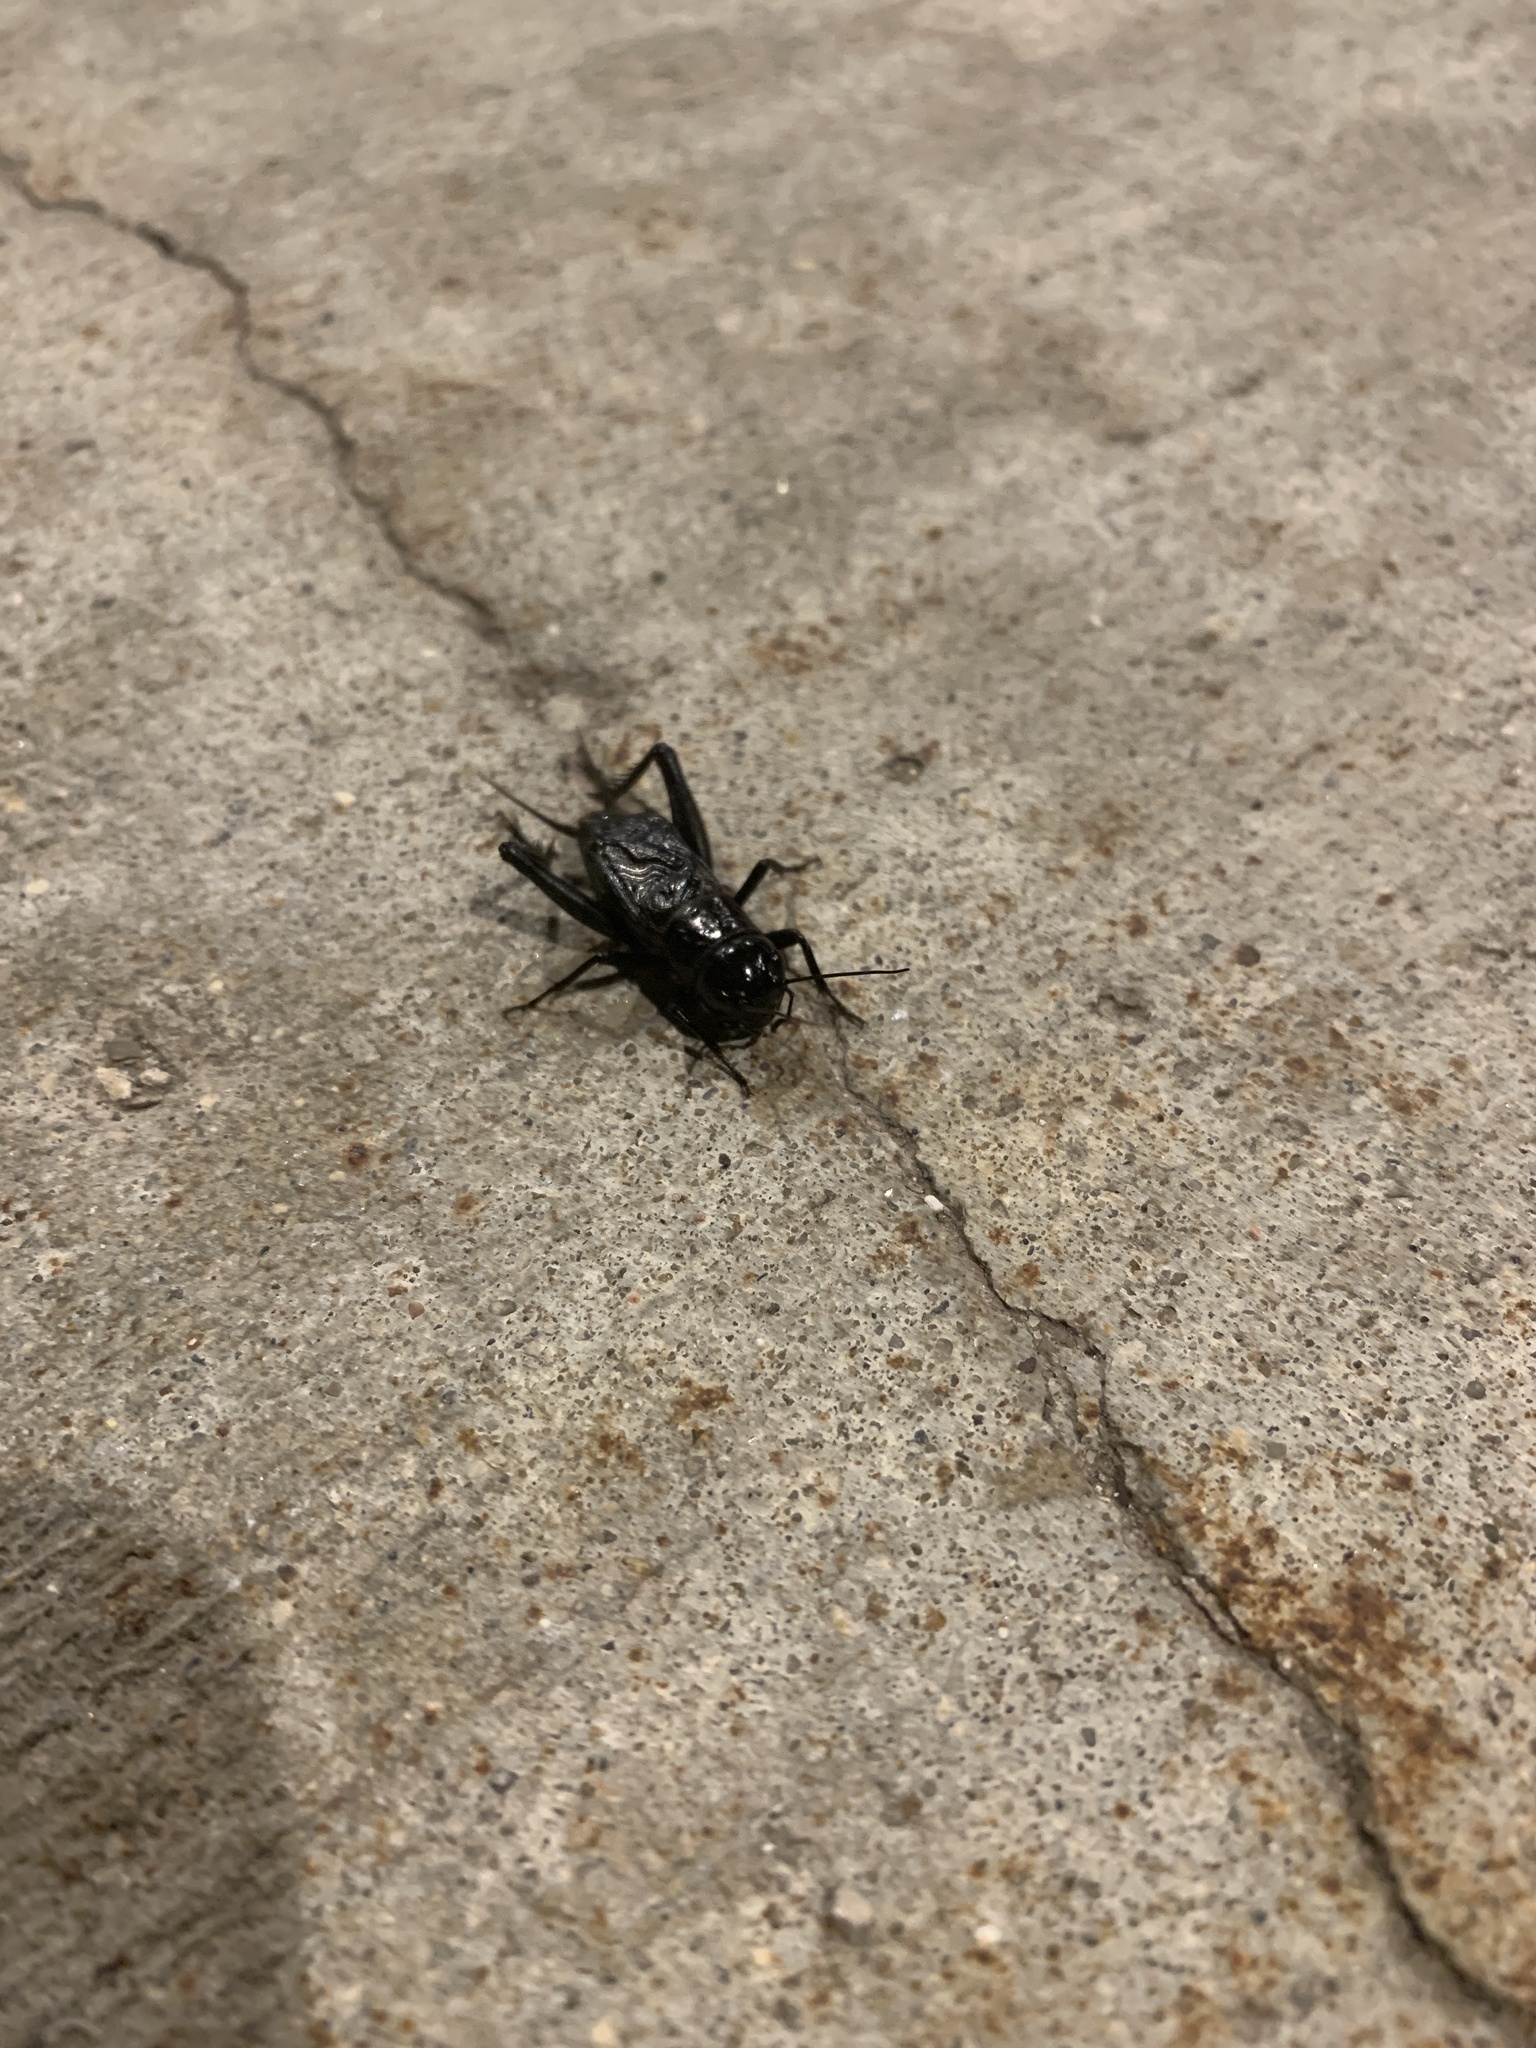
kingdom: Animalia
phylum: Arthropoda
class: Insecta
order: Orthoptera
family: Gryllidae
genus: Gryllus
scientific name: Gryllus pennsylvanicus
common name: Fall field cricket
